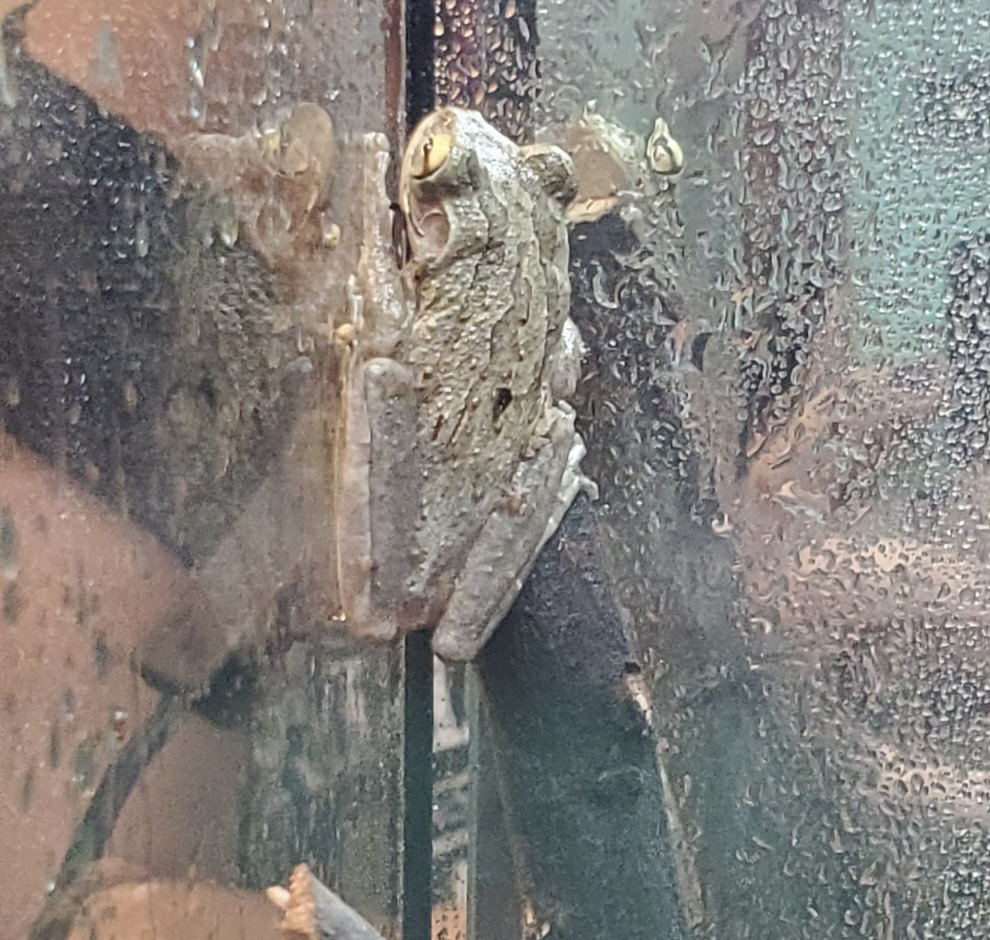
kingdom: Animalia
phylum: Chordata
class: Amphibia
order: Anura
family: Hylidae
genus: Osteopilus
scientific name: Osteopilus septentrionalis
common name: Cuban treefrog
